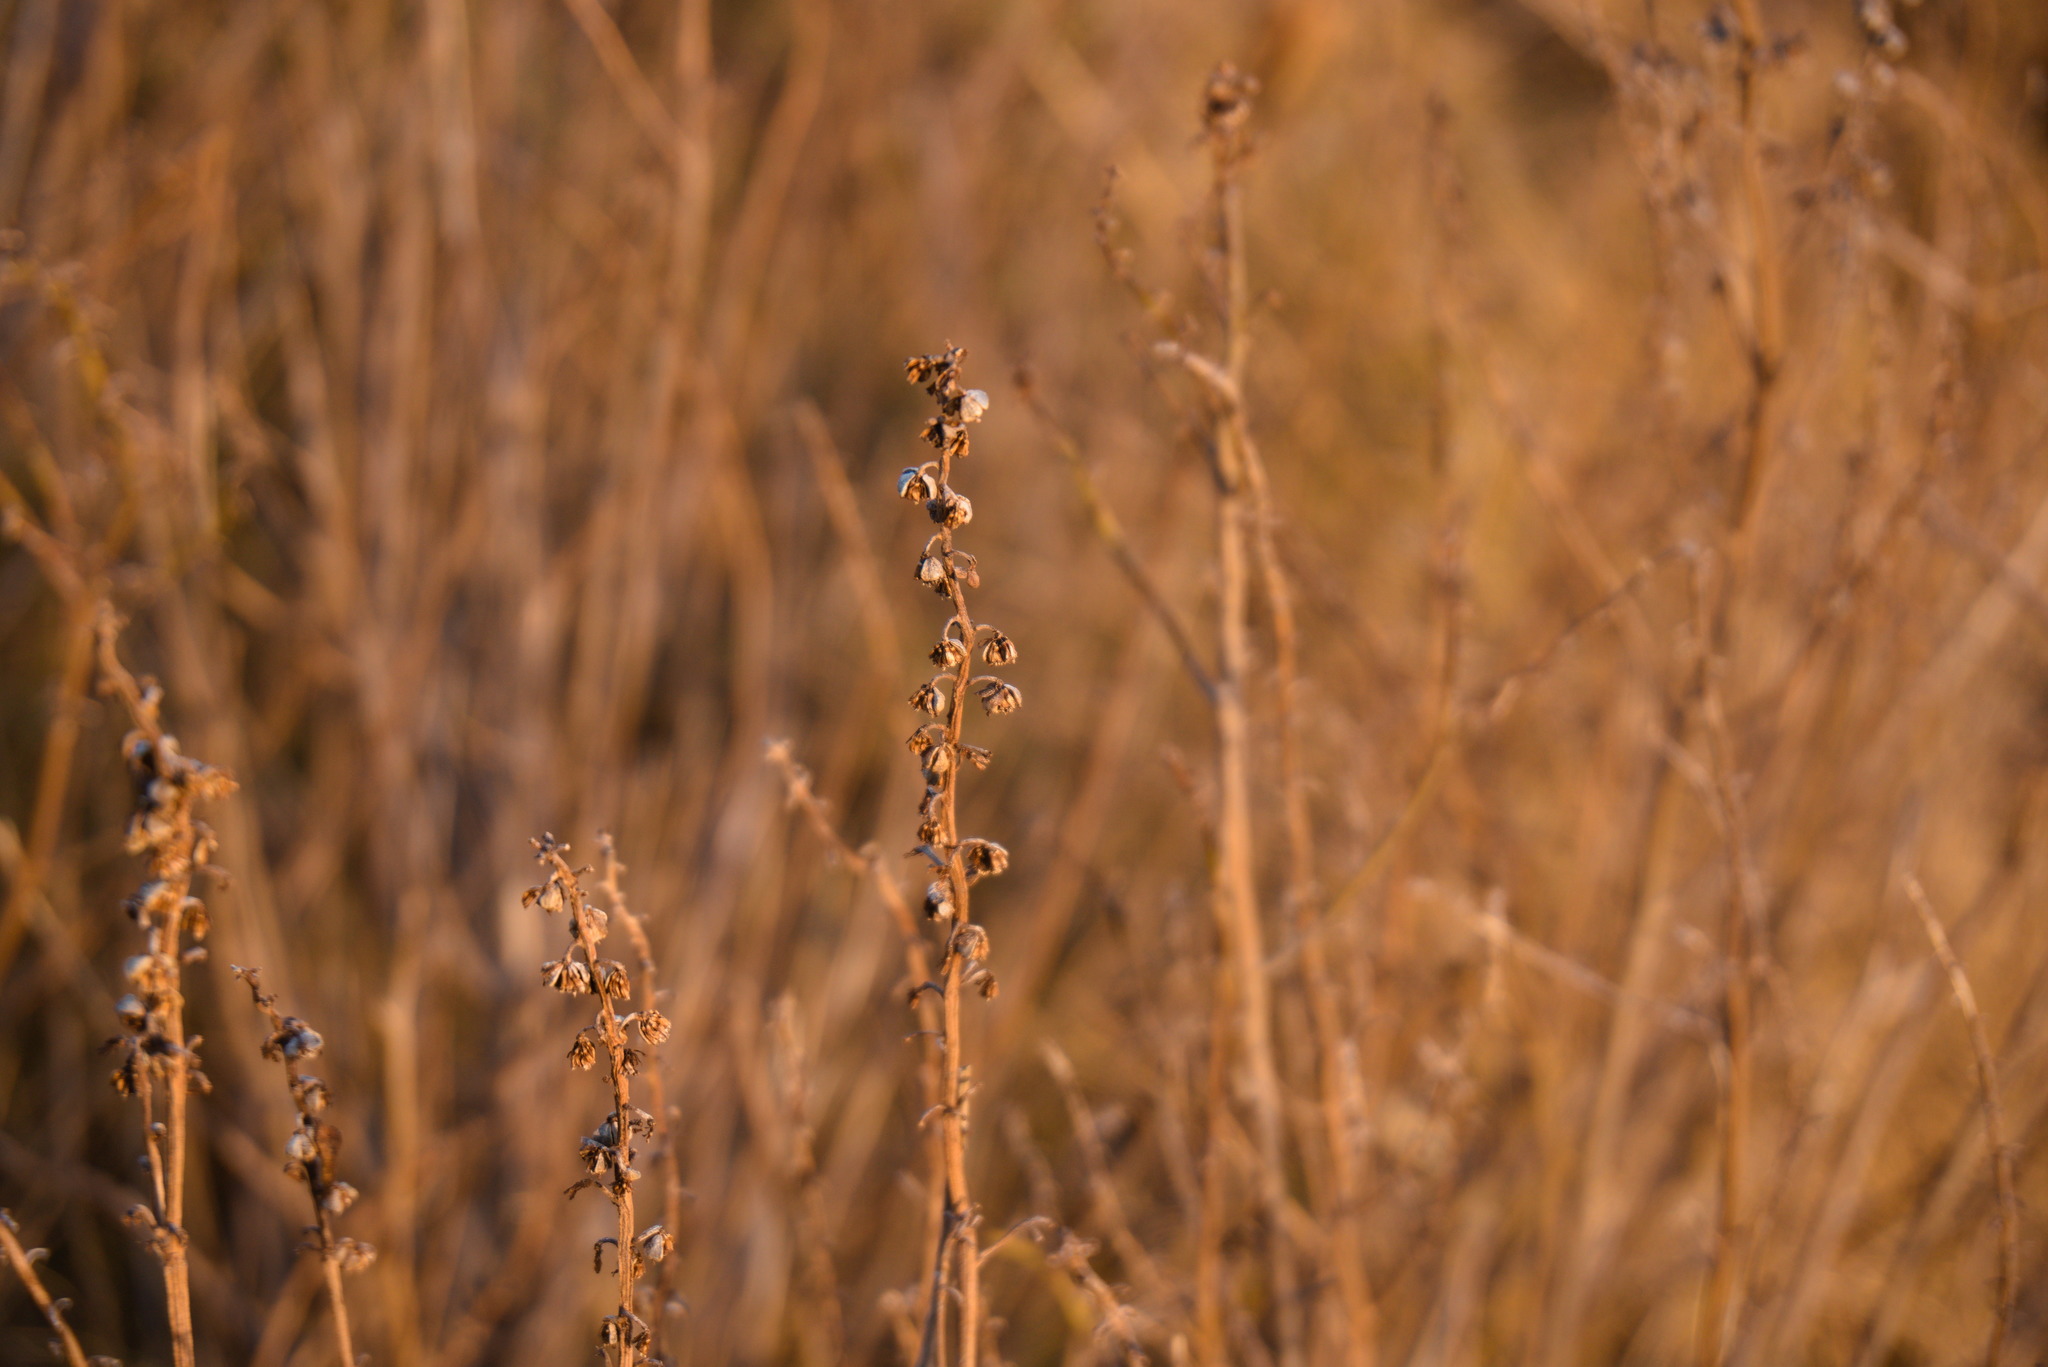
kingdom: Plantae
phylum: Tracheophyta
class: Magnoliopsida
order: Asterales
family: Asteraceae
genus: Iva
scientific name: Iva frutescens
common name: Big-leaved marsh-elder
